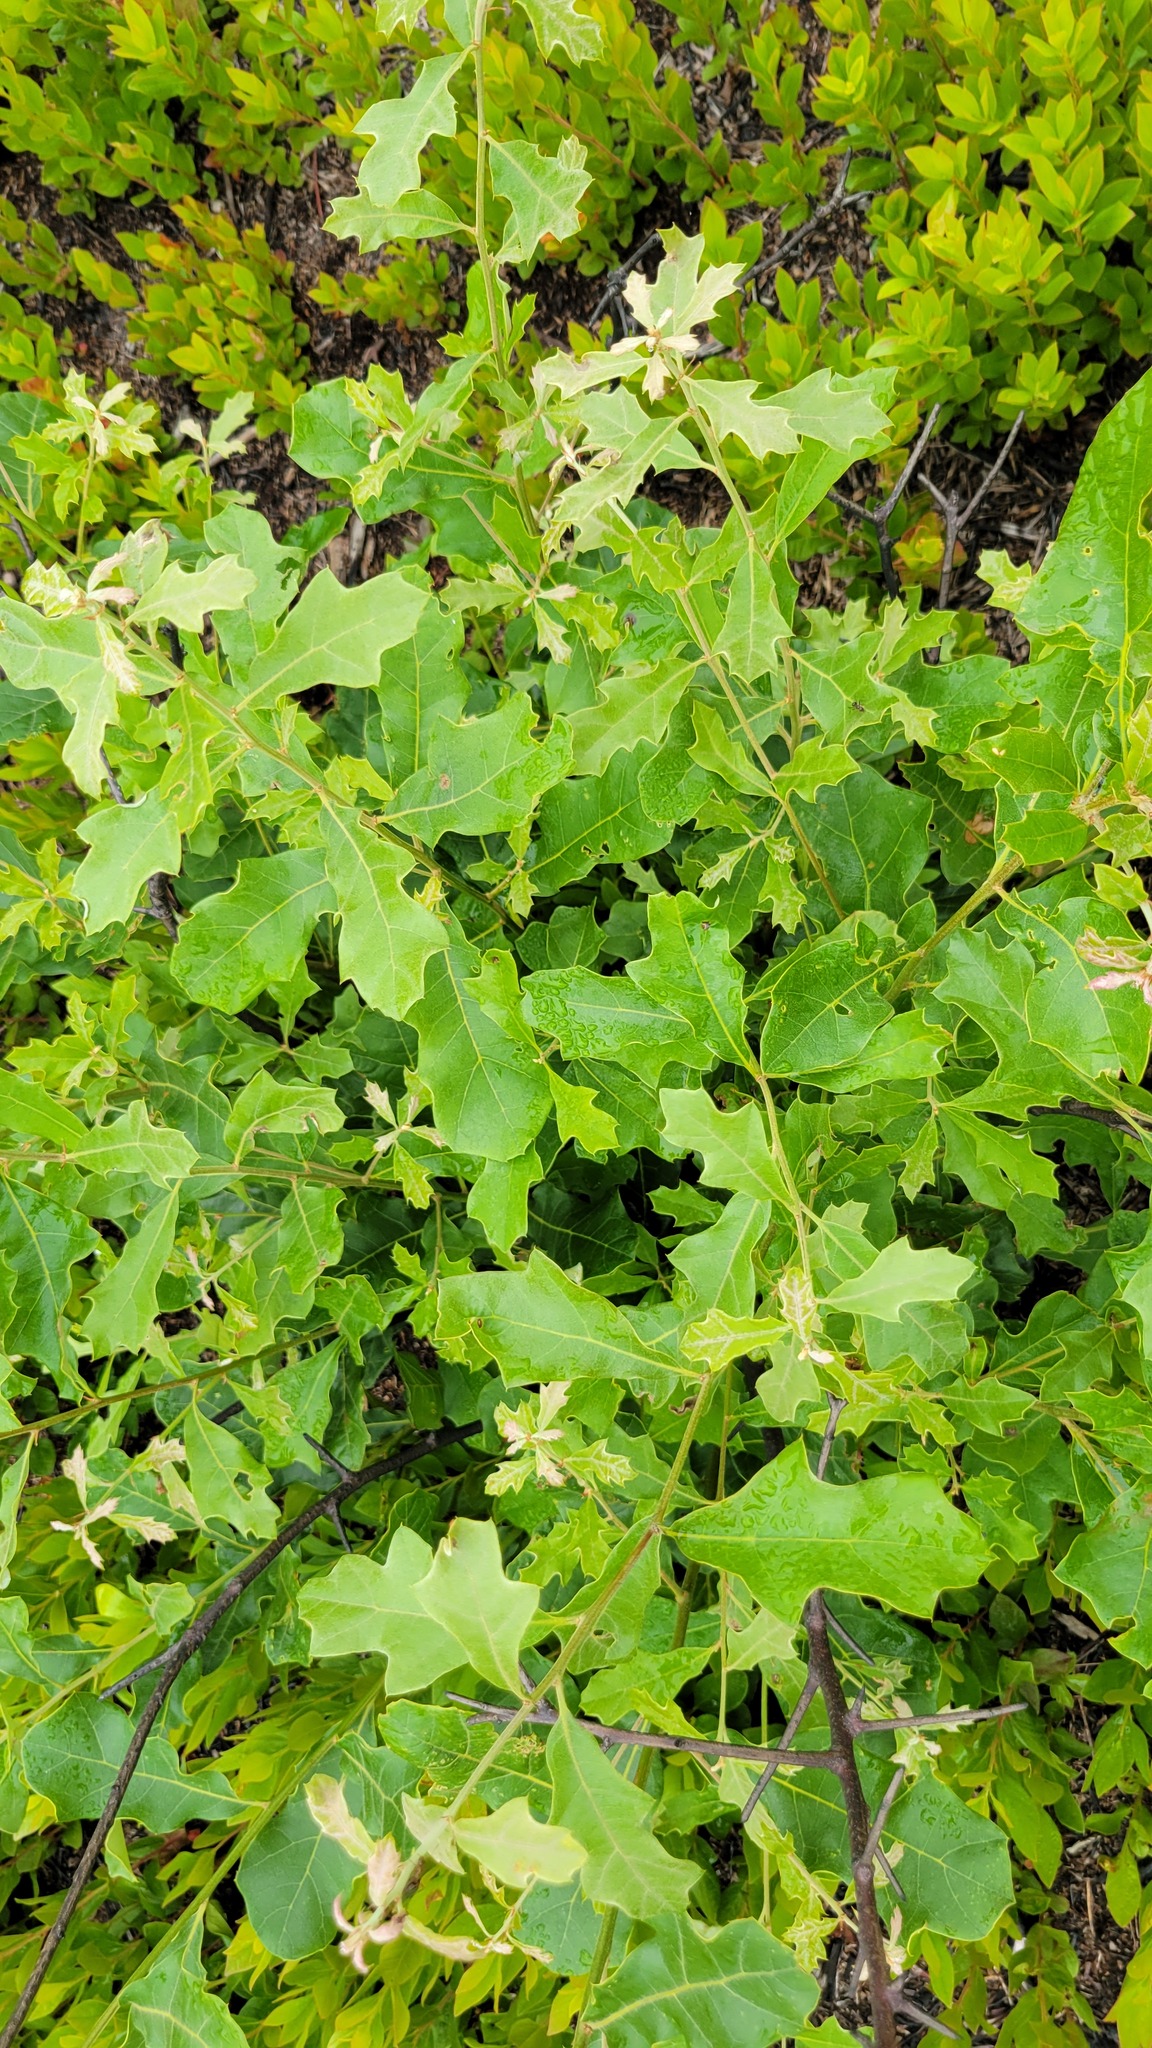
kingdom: Plantae
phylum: Tracheophyta
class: Magnoliopsida
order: Fagales
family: Fagaceae
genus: Quercus
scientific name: Quercus ilicifolia
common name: Bear oak
